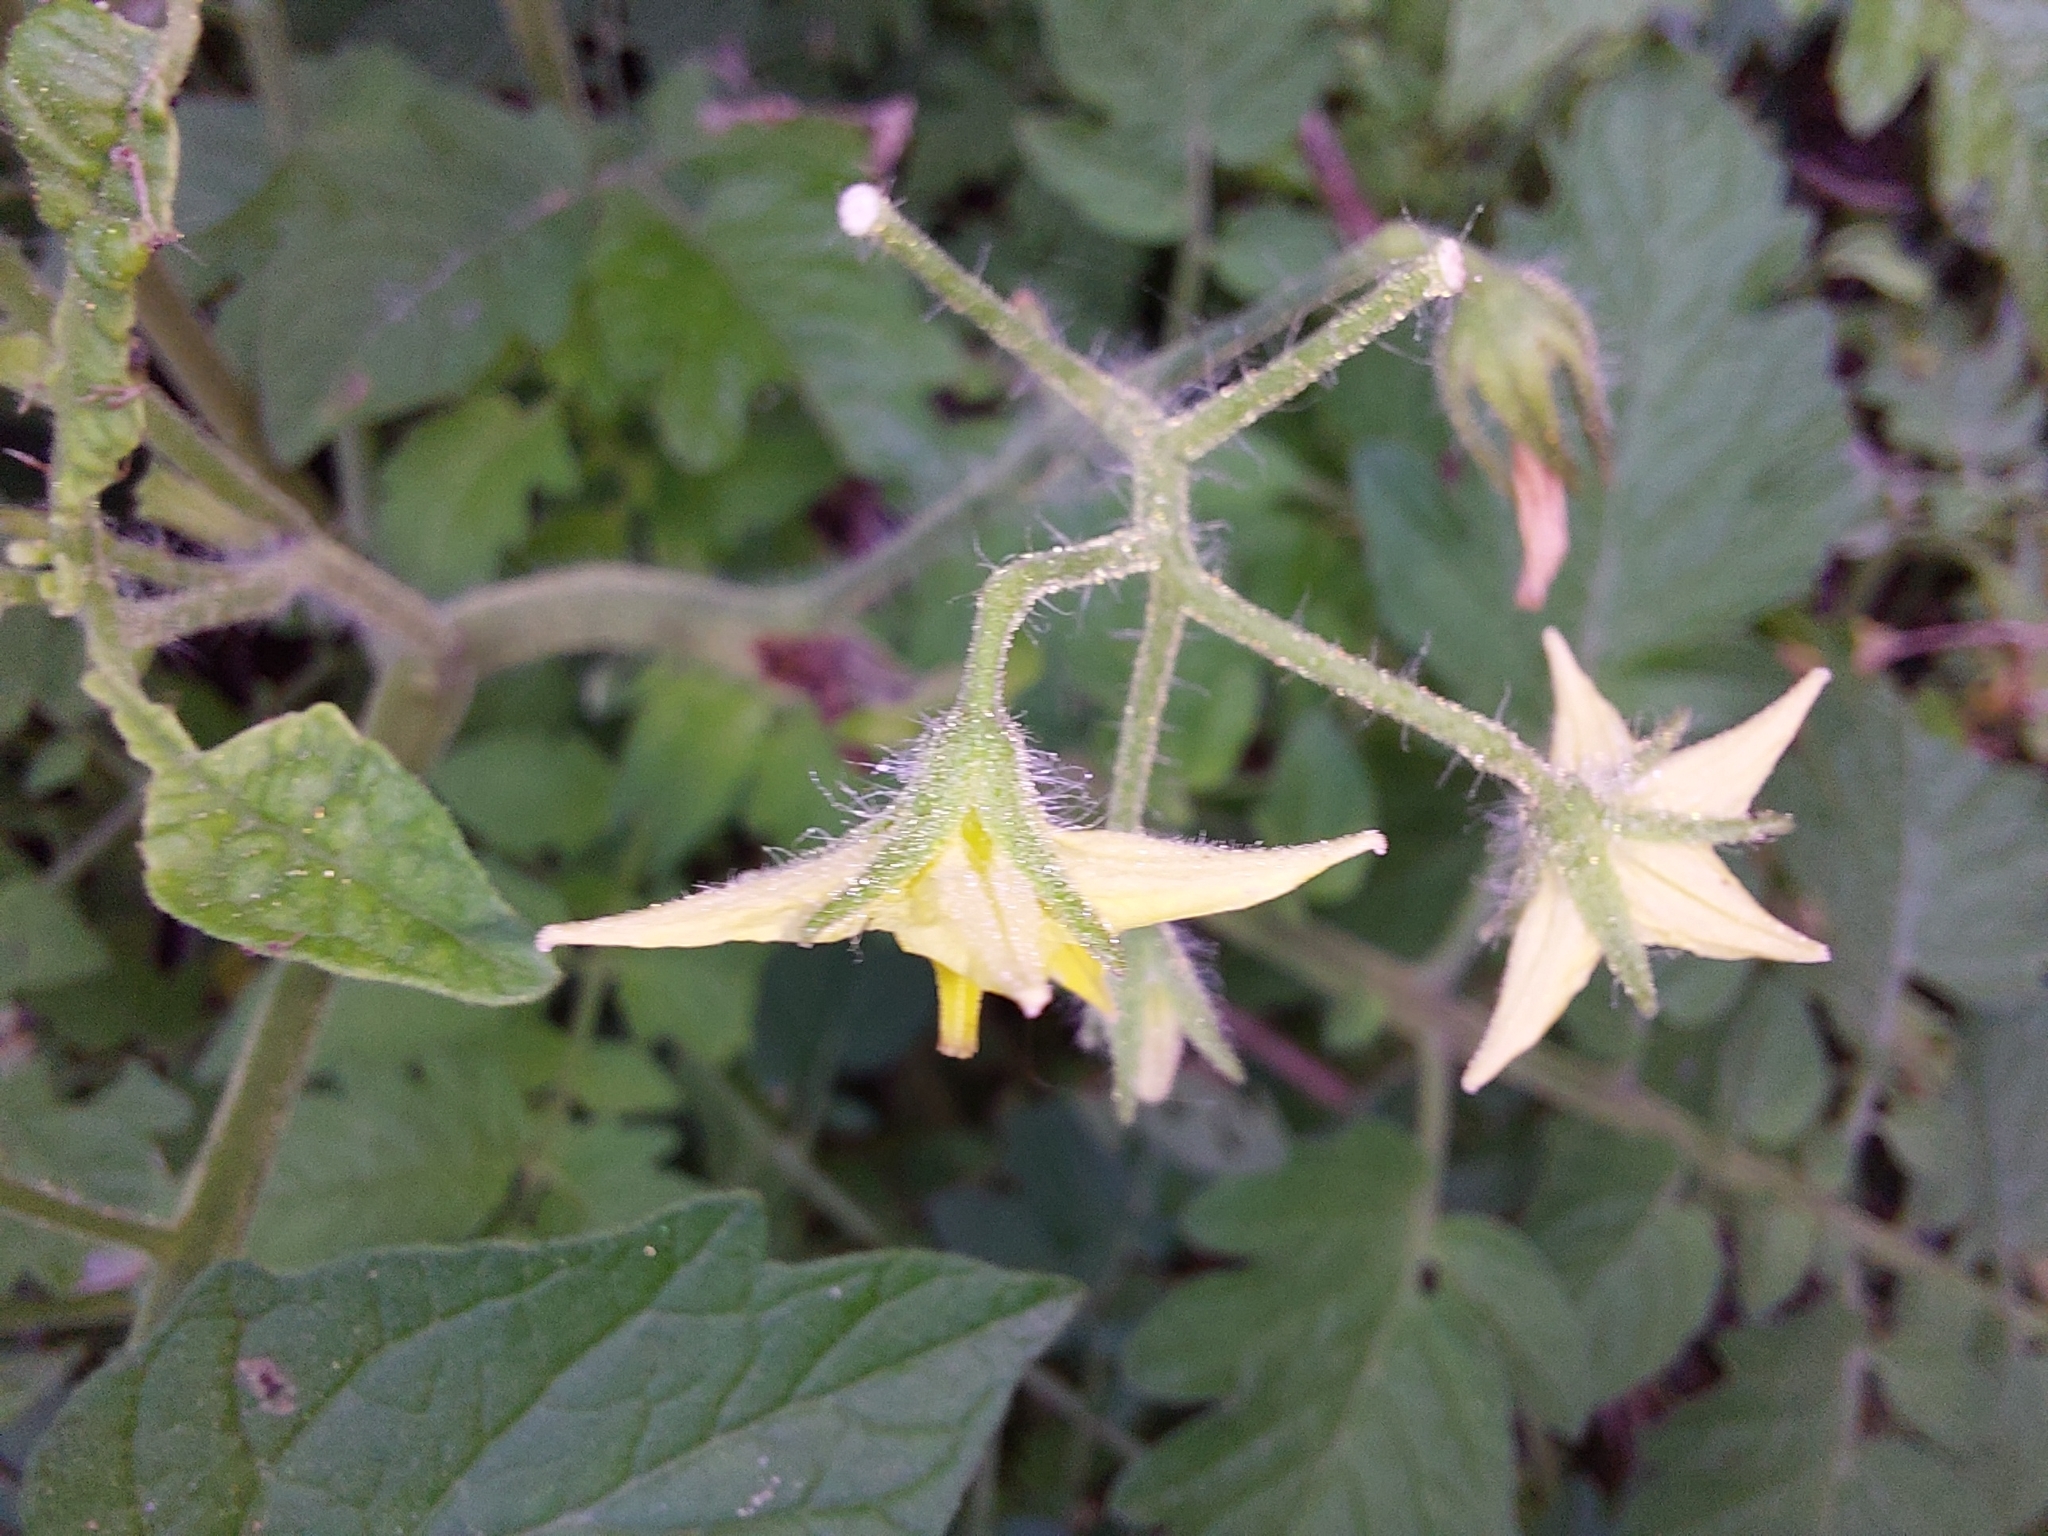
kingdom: Plantae
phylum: Tracheophyta
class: Magnoliopsida
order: Solanales
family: Solanaceae
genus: Solanum
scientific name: Solanum lycopersicum
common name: Garden tomato
